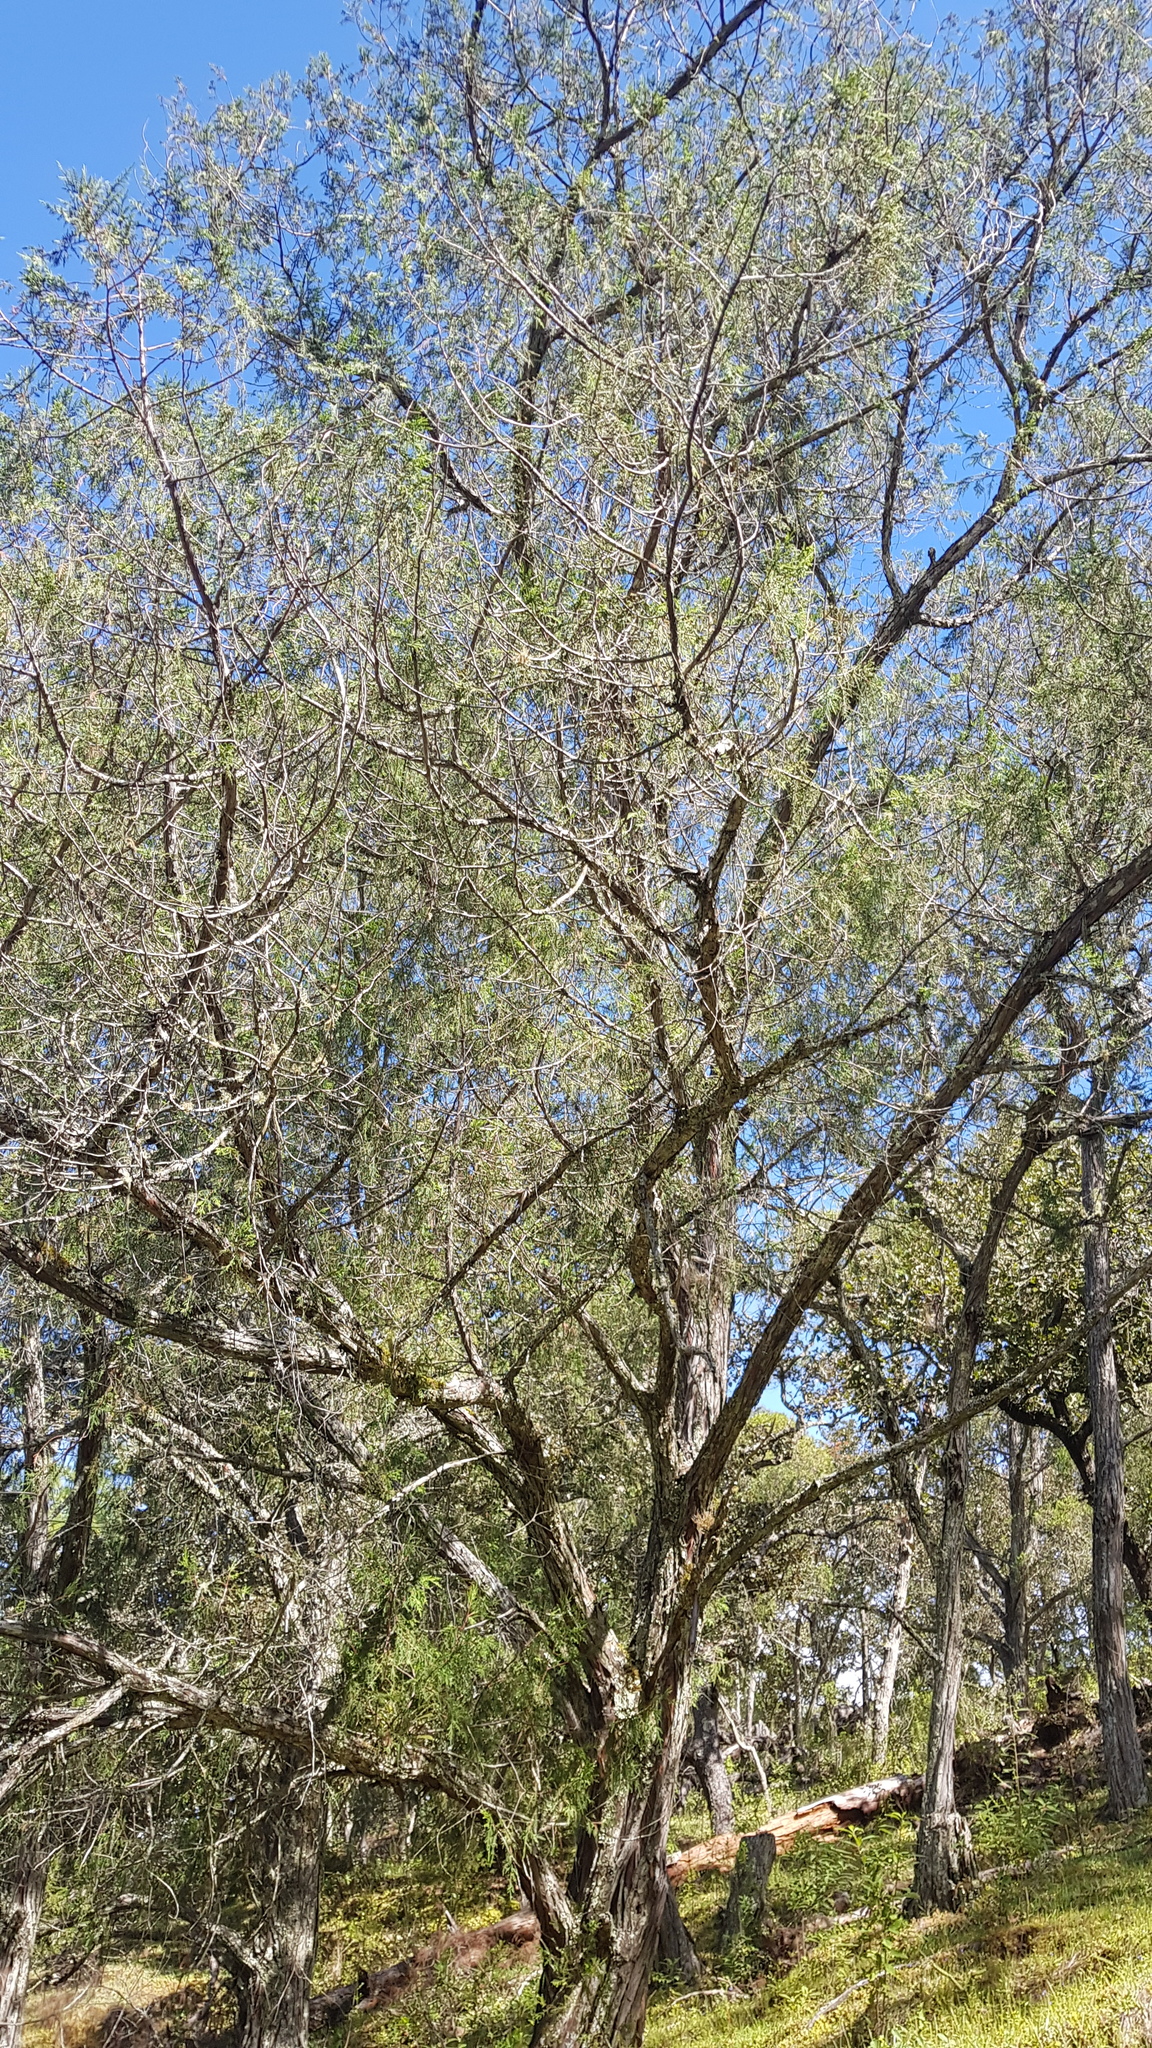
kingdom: Plantae
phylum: Tracheophyta
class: Pinopsida
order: Pinales
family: Cupressaceae
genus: Juniperus
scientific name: Juniperus flaccida
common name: Drooping juniper
